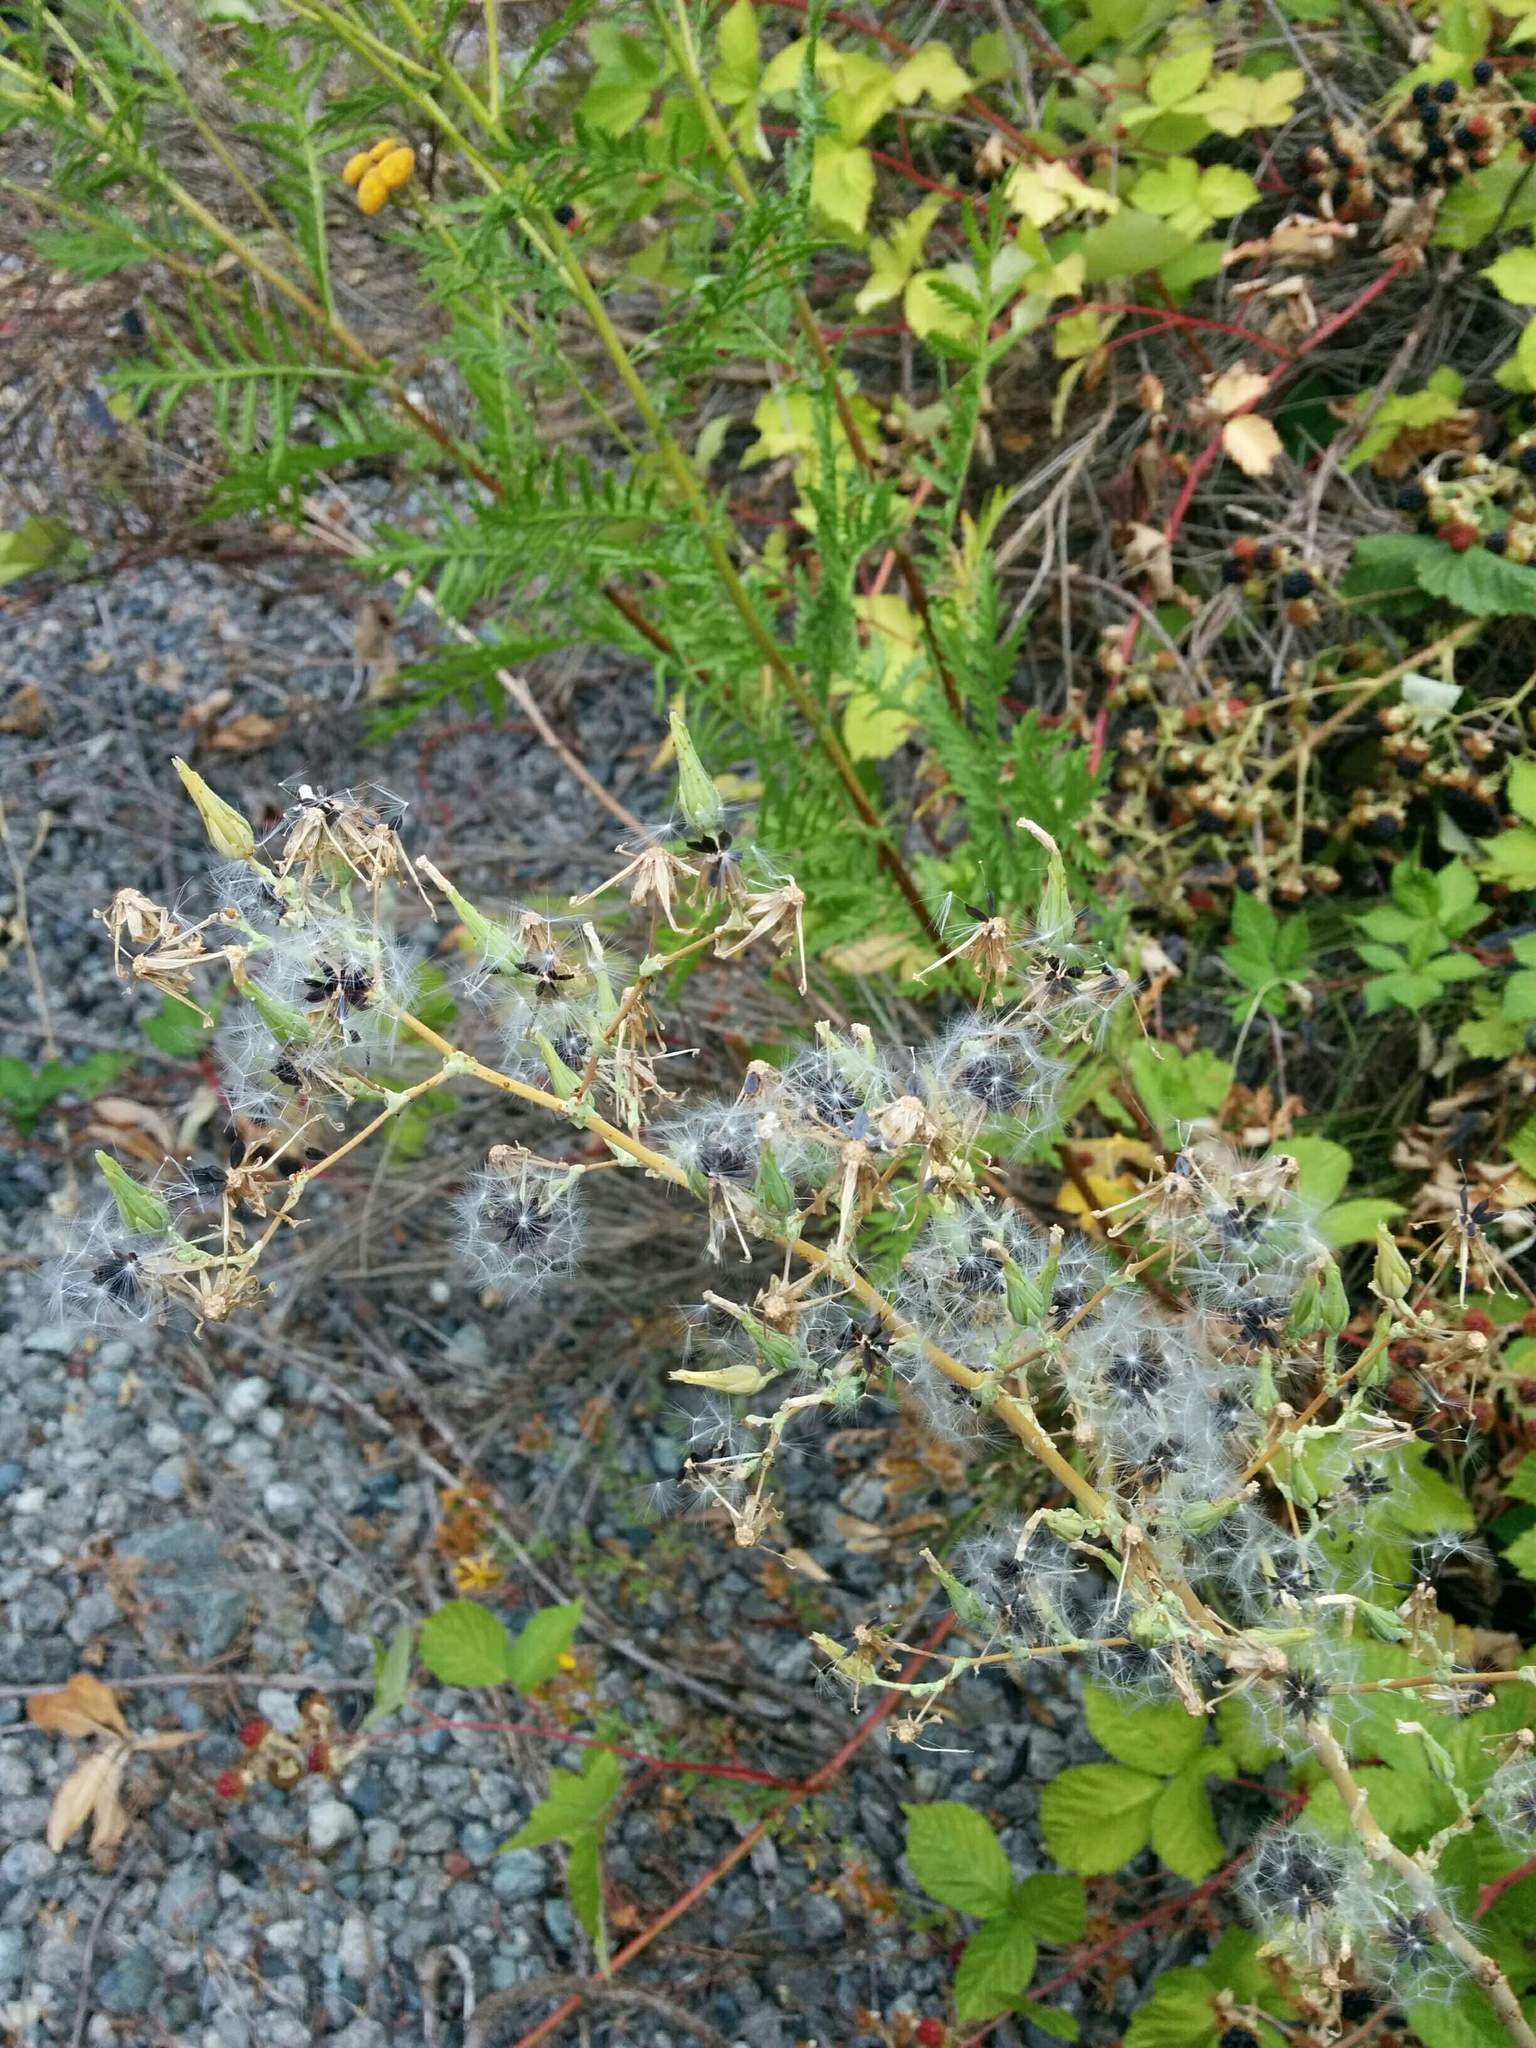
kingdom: Plantae
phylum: Tracheophyta
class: Magnoliopsida
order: Asterales
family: Asteraceae
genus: Lactuca
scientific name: Lactuca serriola
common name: Prickly lettuce
